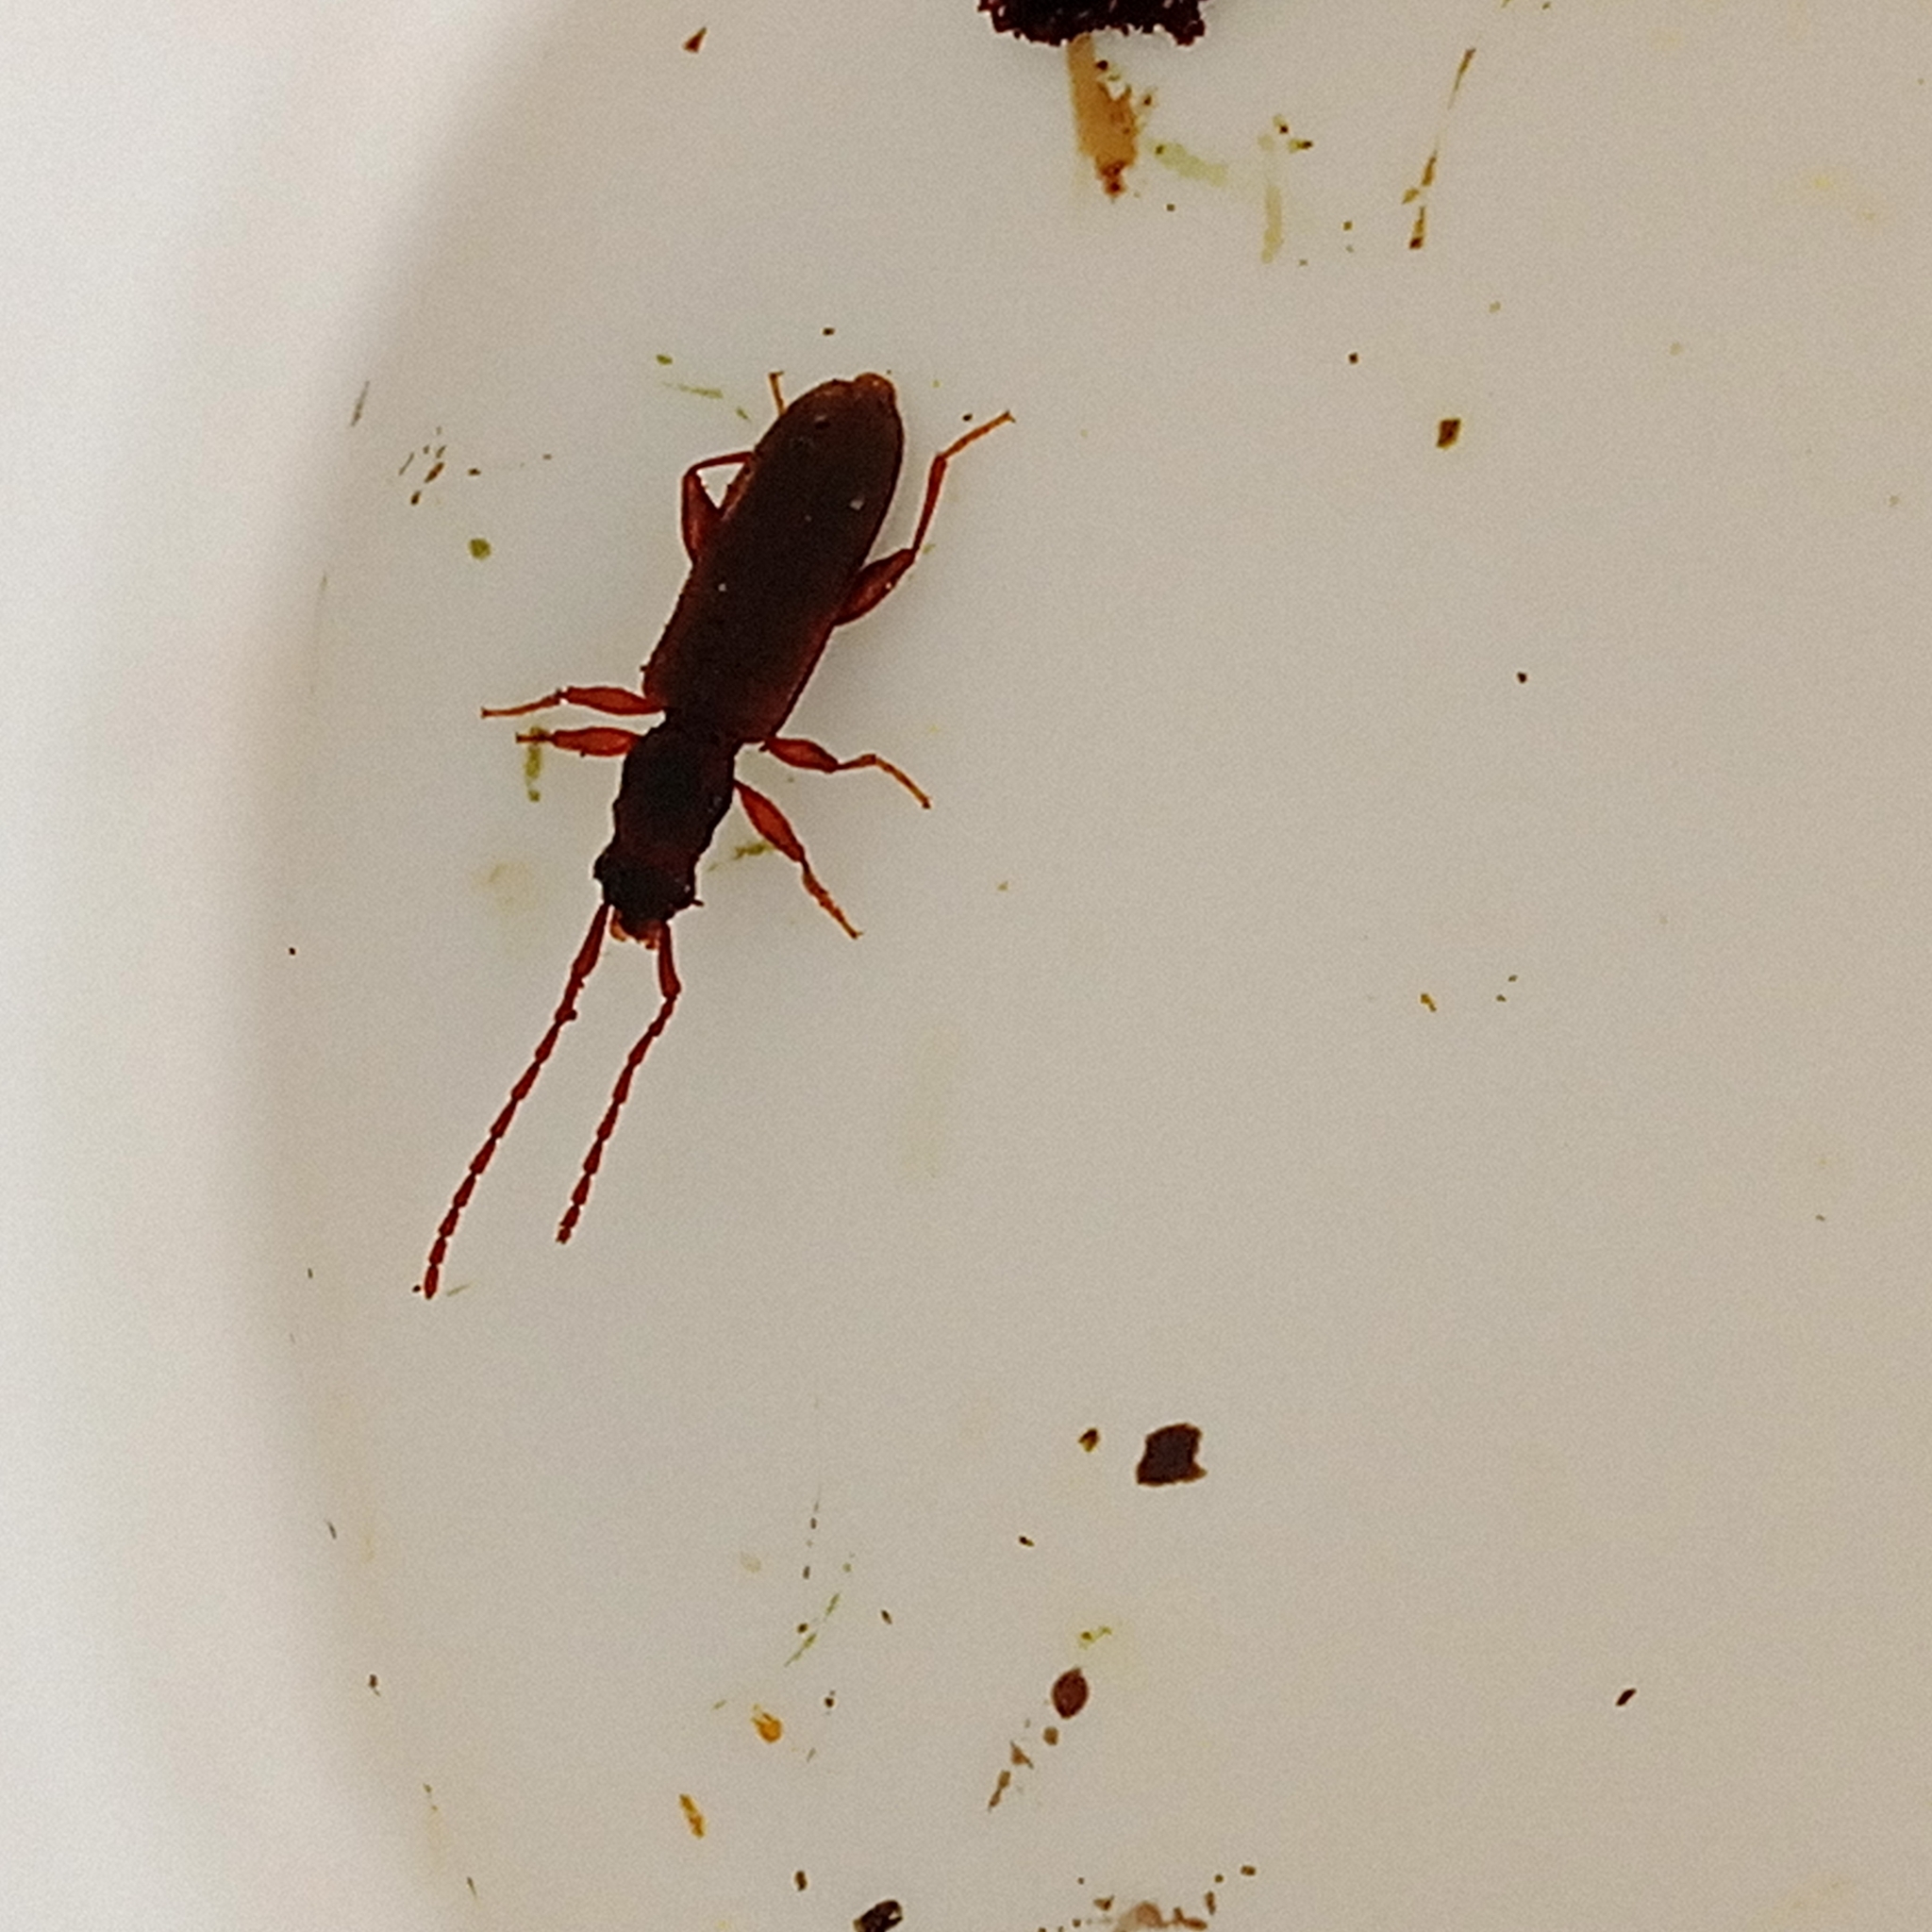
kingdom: Animalia
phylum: Arthropoda
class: Insecta
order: Coleoptera
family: Silvanidae
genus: Dendrophagus
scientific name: Dendrophagus crenatus
